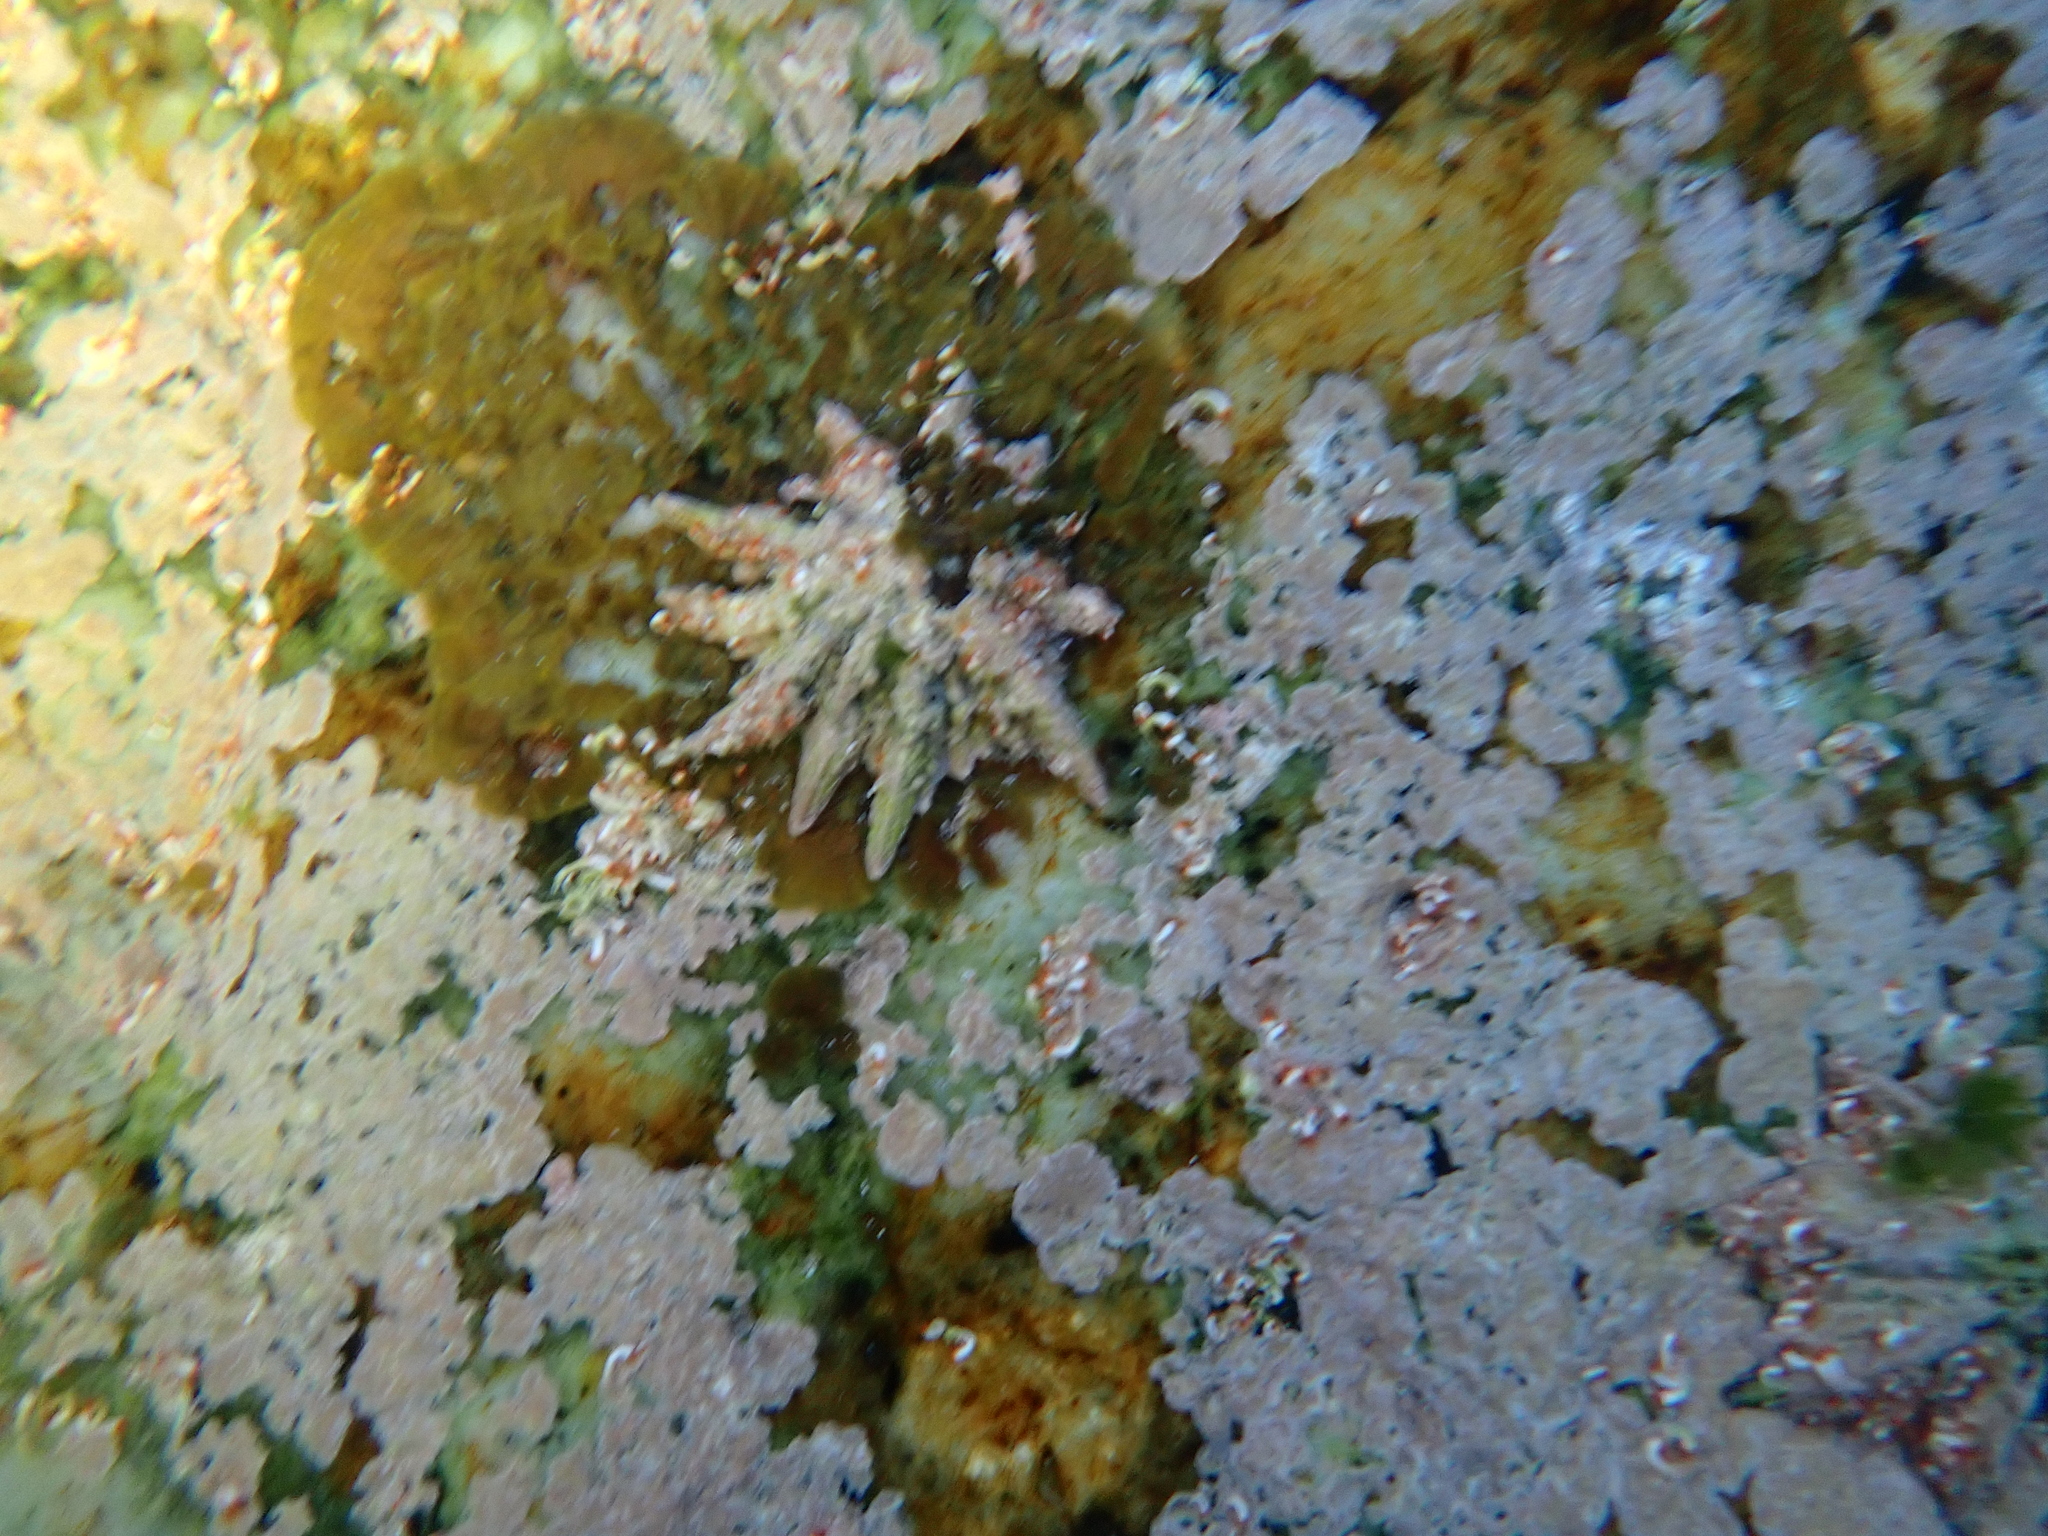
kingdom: Animalia
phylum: Mollusca
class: Gastropoda
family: Patellidae
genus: Scutellastra
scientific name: Scutellastra longicosta
